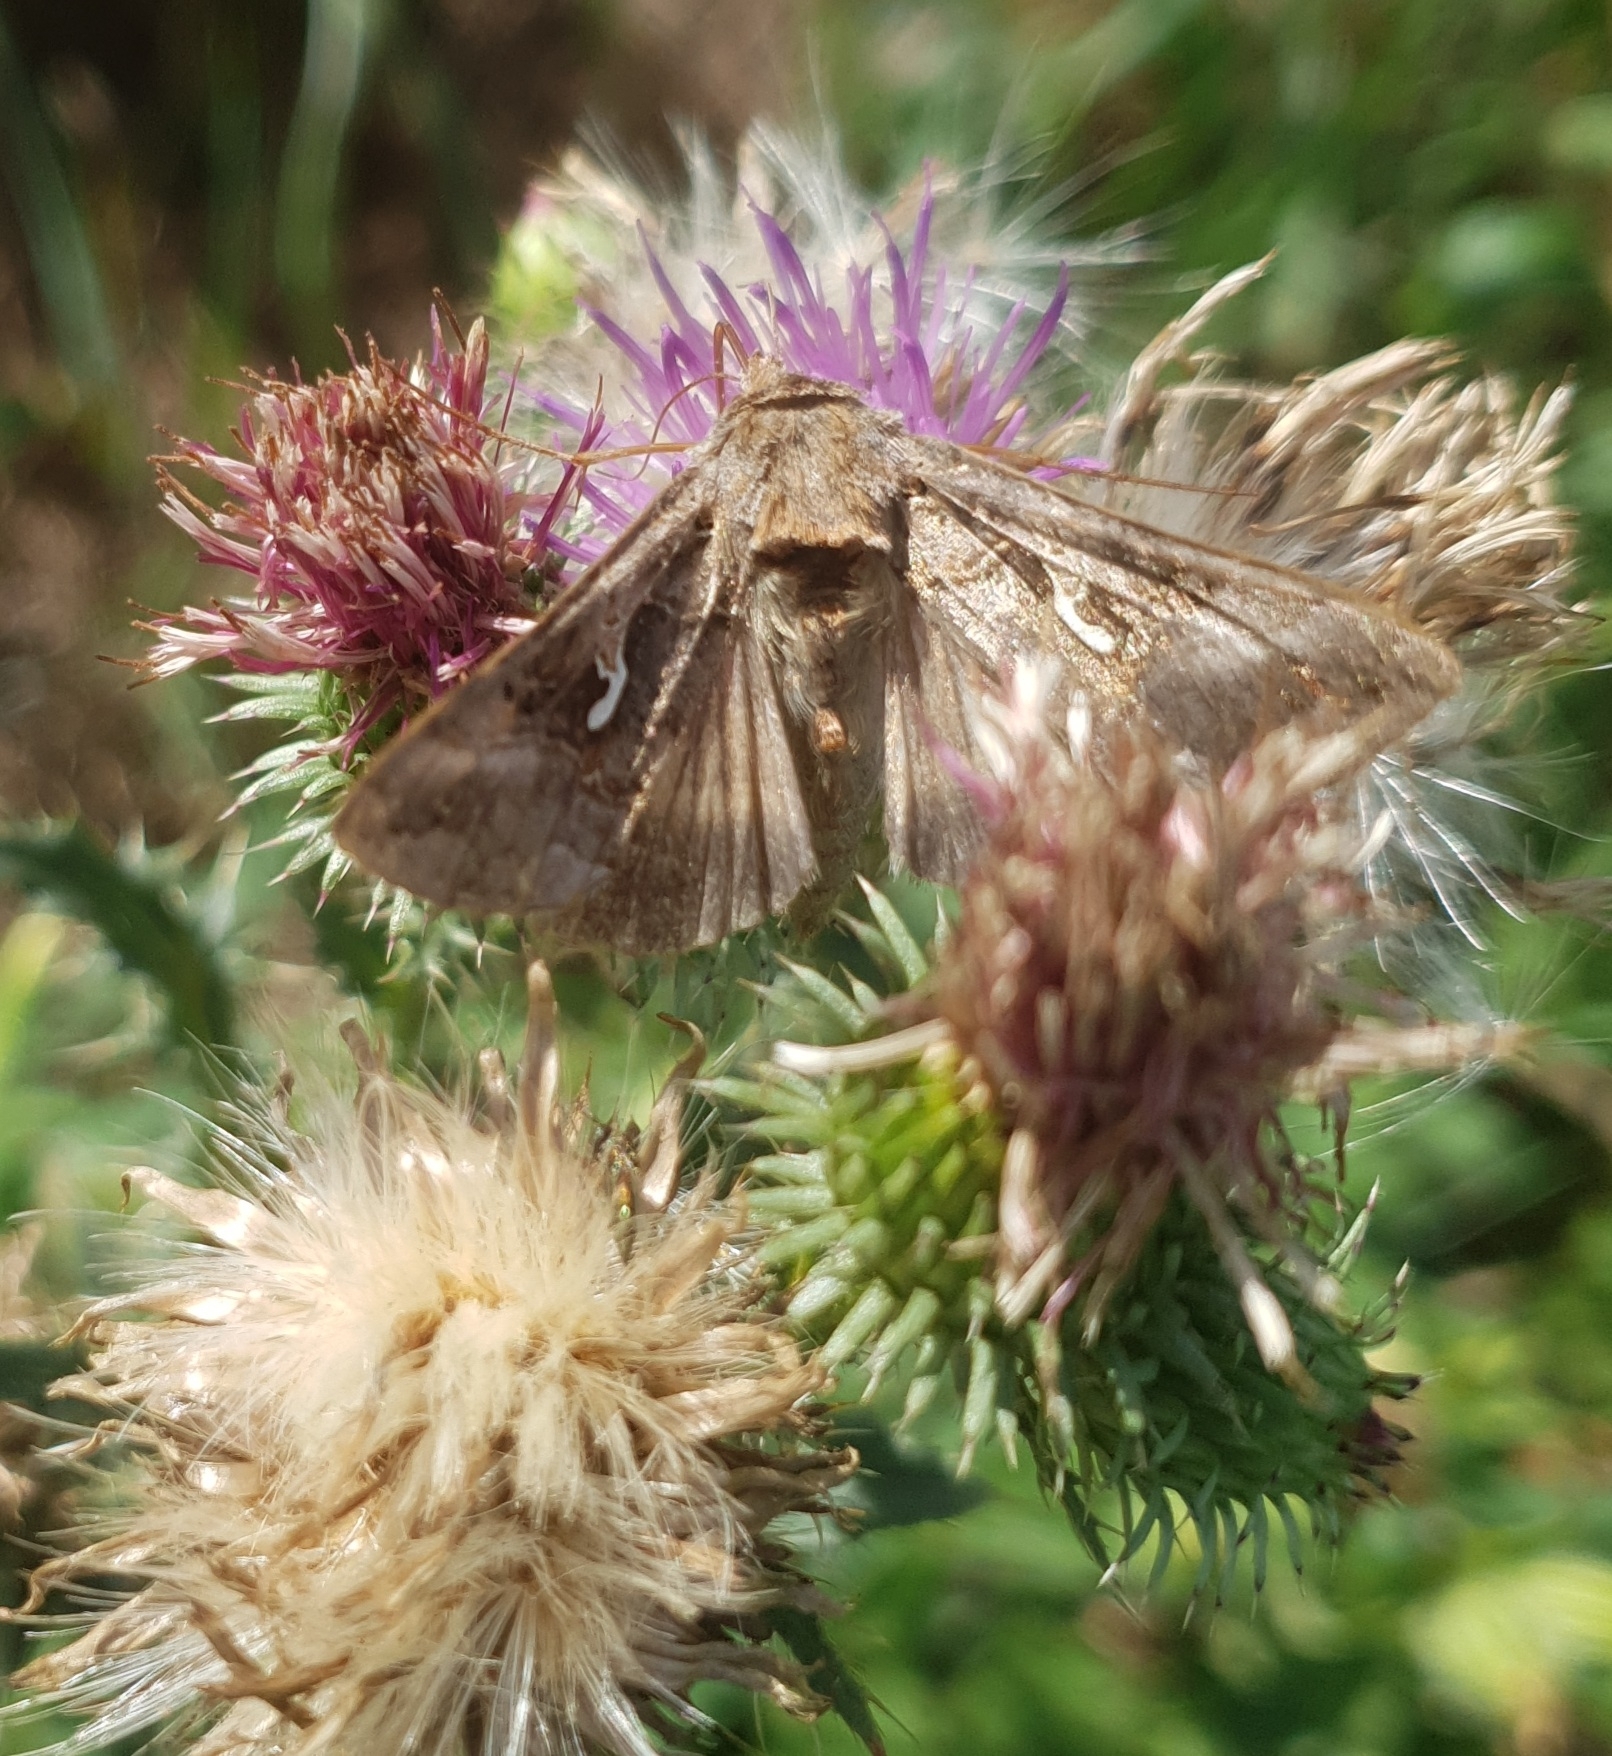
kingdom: Animalia
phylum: Arthropoda
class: Insecta
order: Lepidoptera
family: Noctuidae
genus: Autographa
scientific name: Autographa gamma
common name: Silver y
